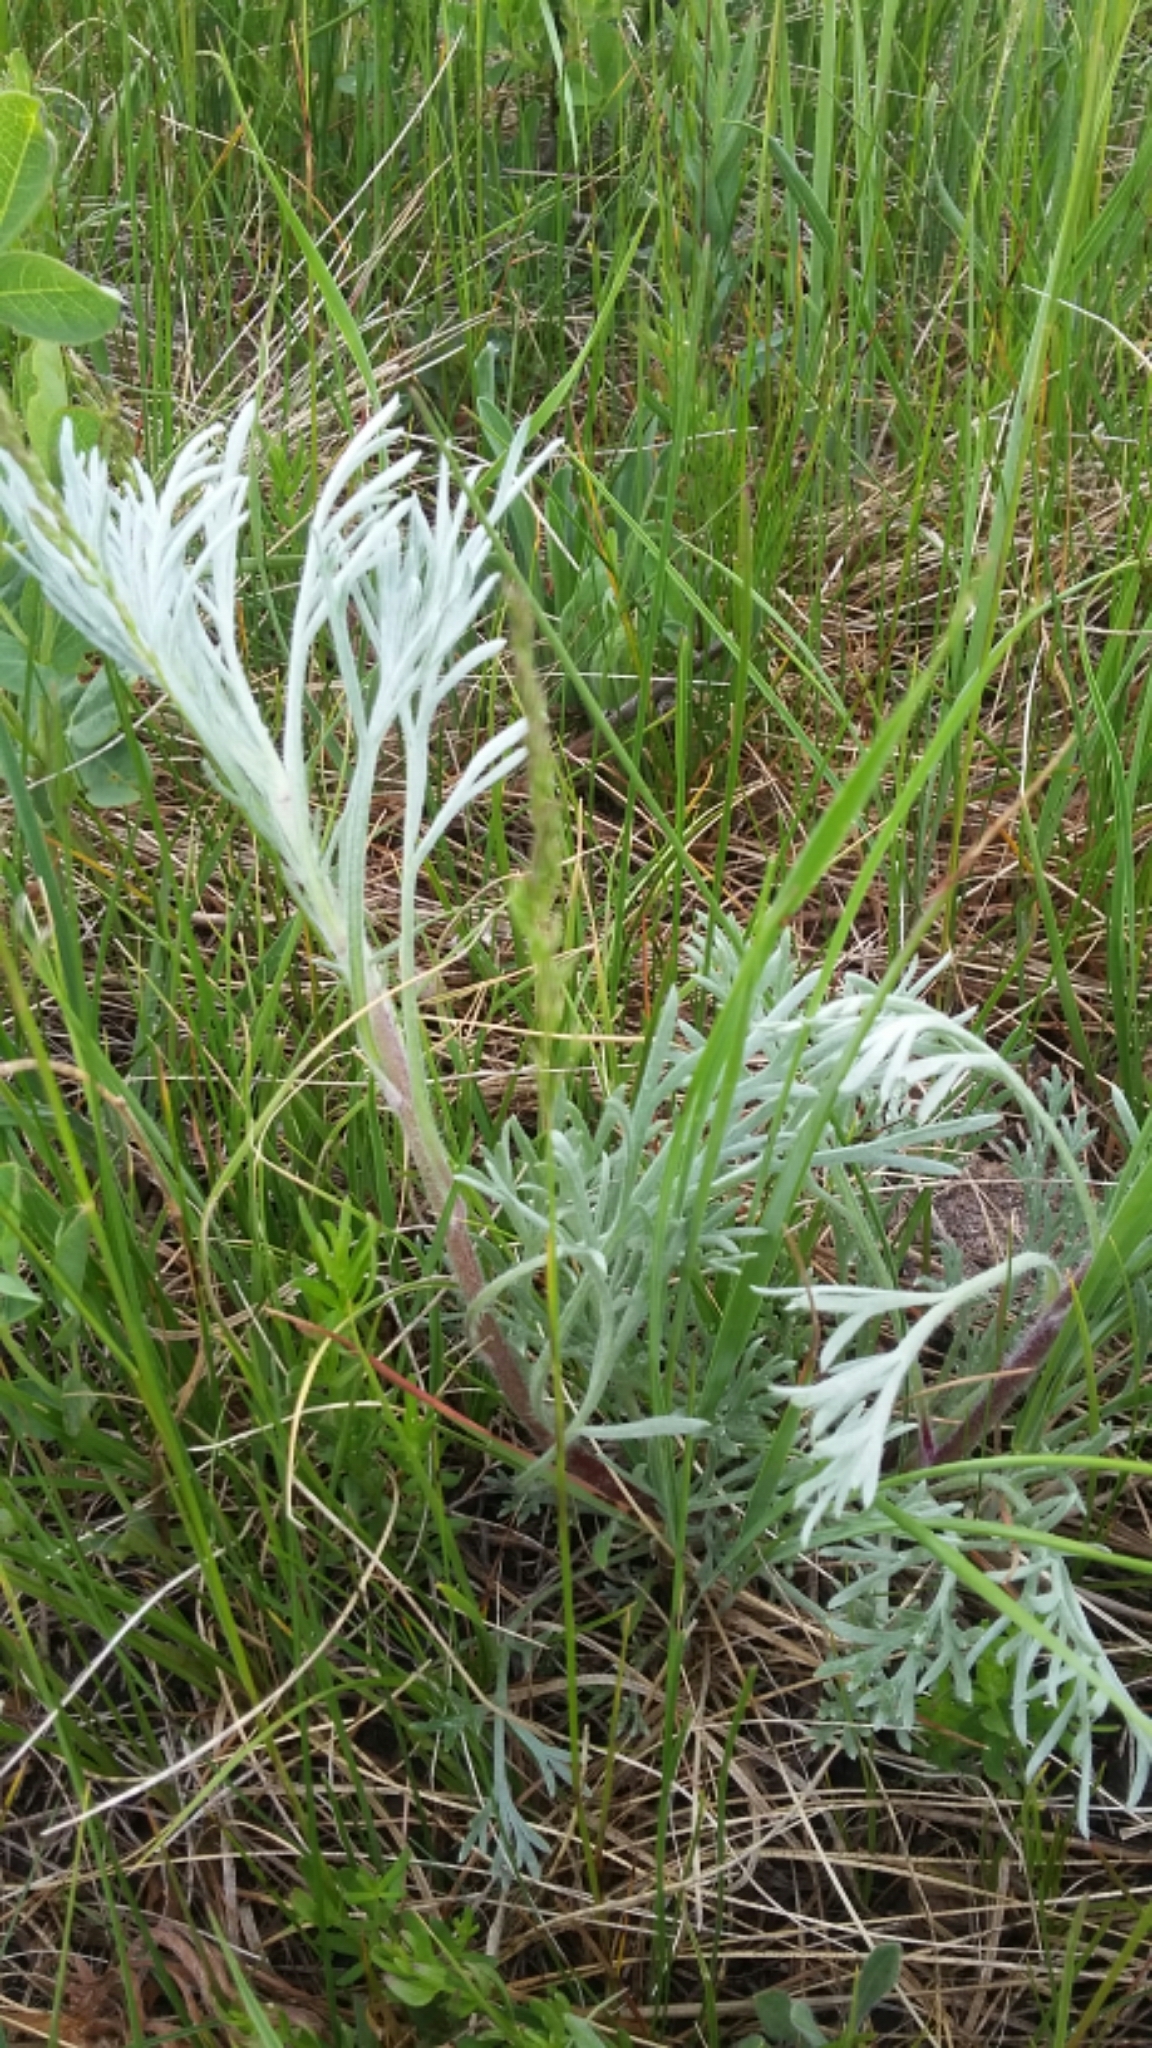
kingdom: Plantae
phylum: Tracheophyta
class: Magnoliopsida
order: Asterales
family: Asteraceae
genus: Artemisia
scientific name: Artemisia campestris
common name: Field wormwood
